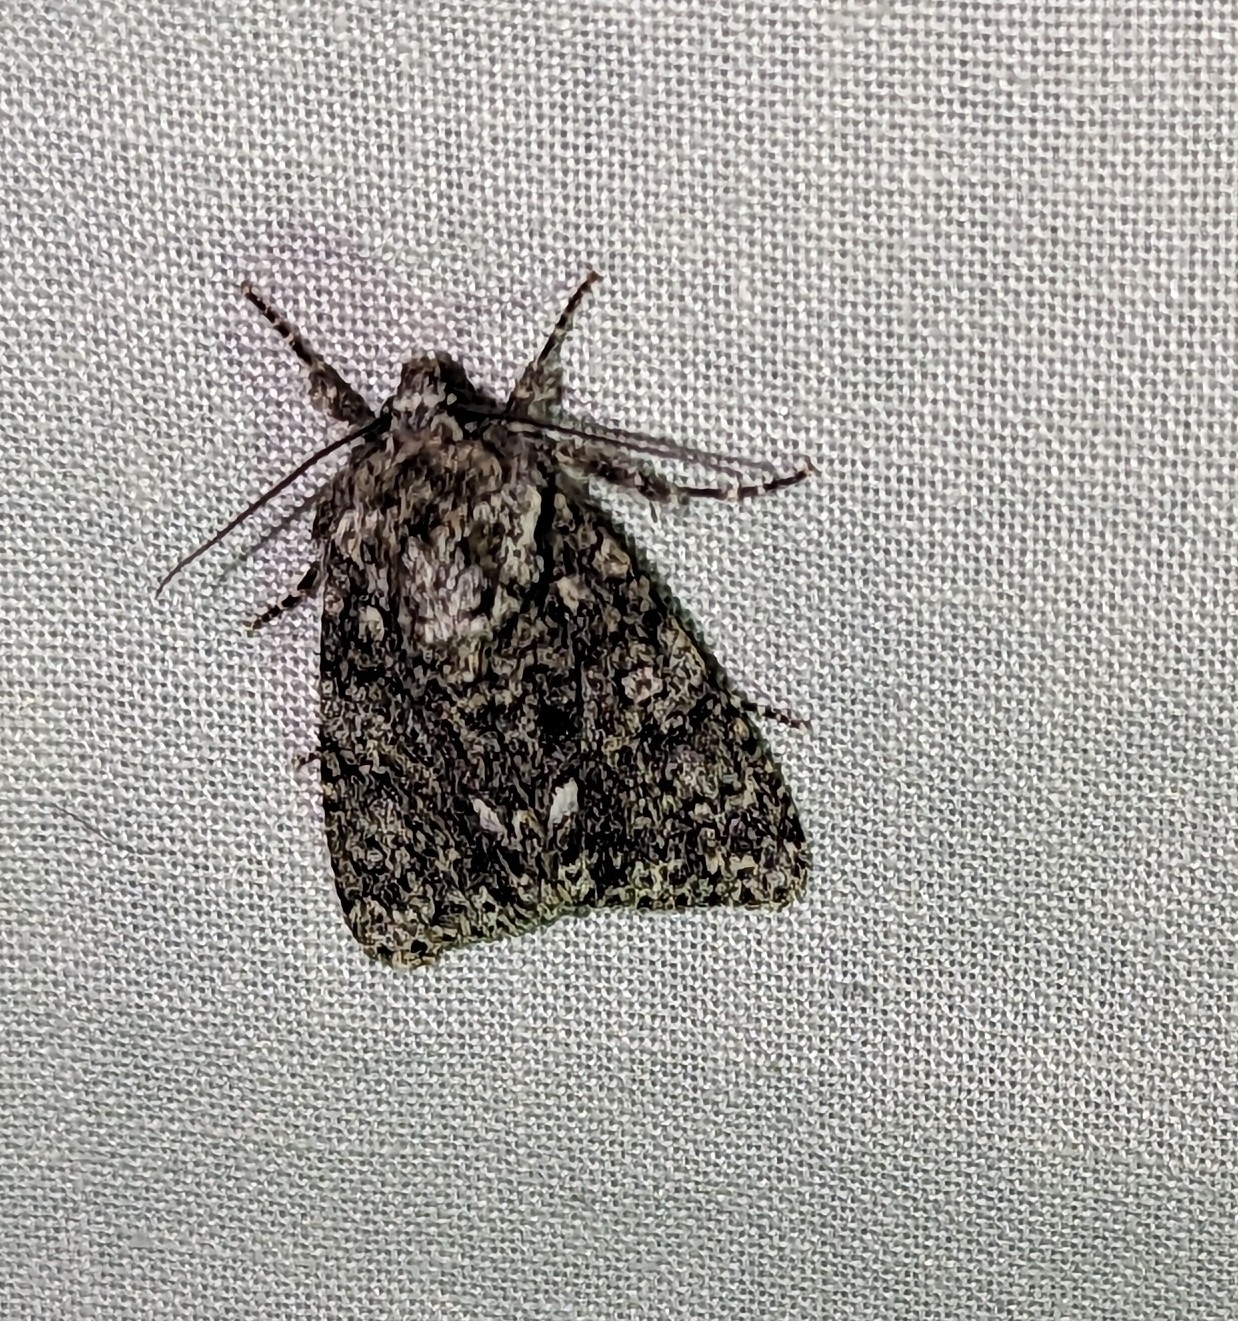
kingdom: Animalia
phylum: Arthropoda
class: Insecta
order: Lepidoptera
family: Noctuidae
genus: Acronicta
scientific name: Acronicta rumicis
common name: Knot grass
